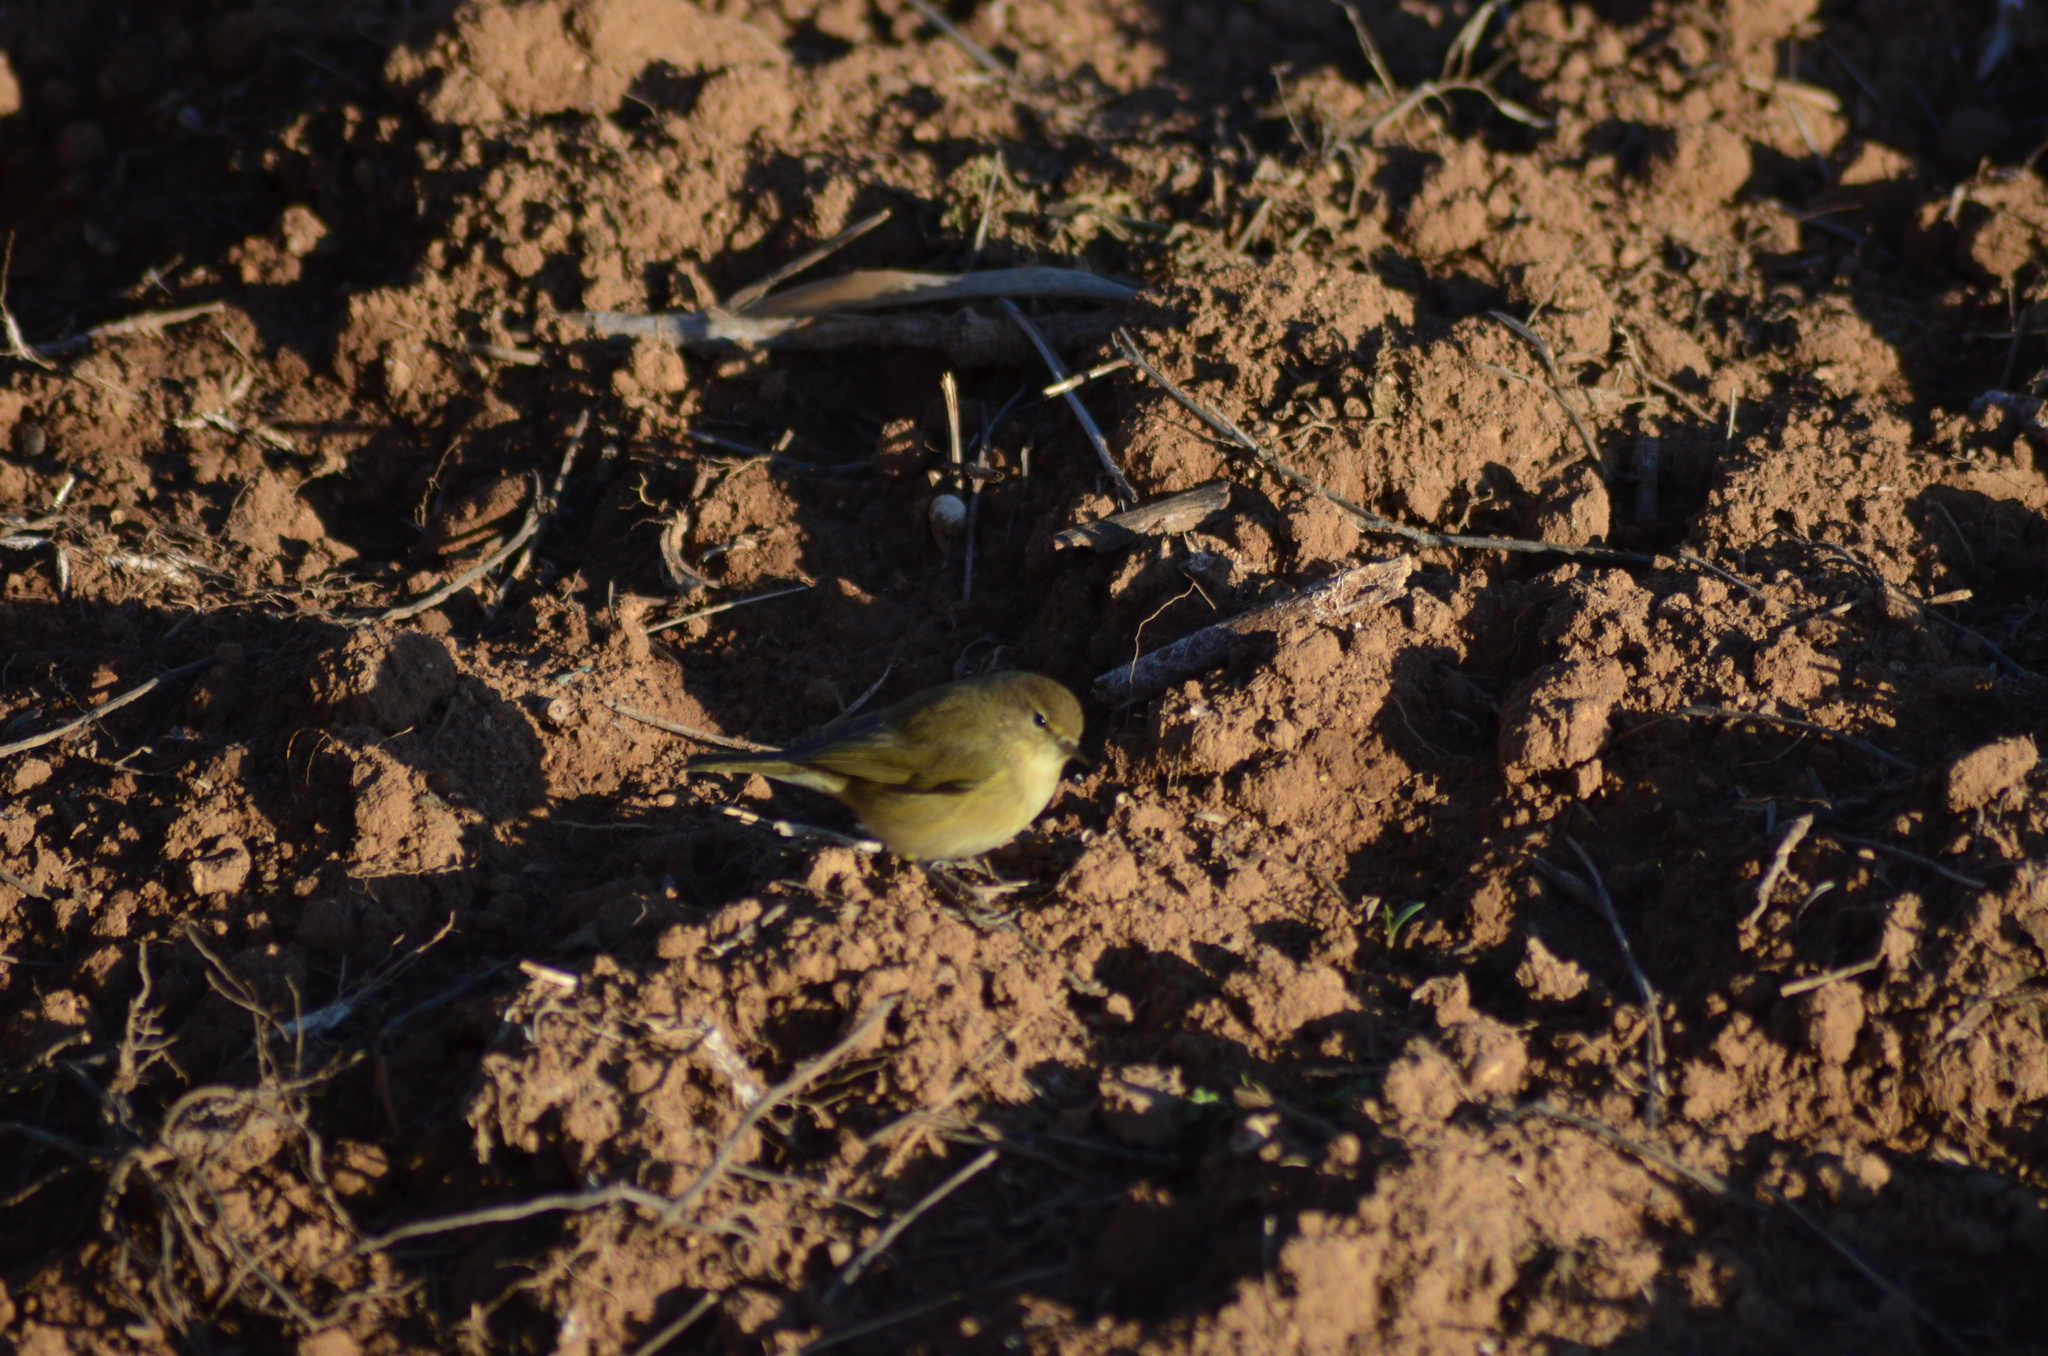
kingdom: Animalia
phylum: Chordata
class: Aves
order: Passeriformes
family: Phylloscopidae
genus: Phylloscopus
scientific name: Phylloscopus collybita
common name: Common chiffchaff
